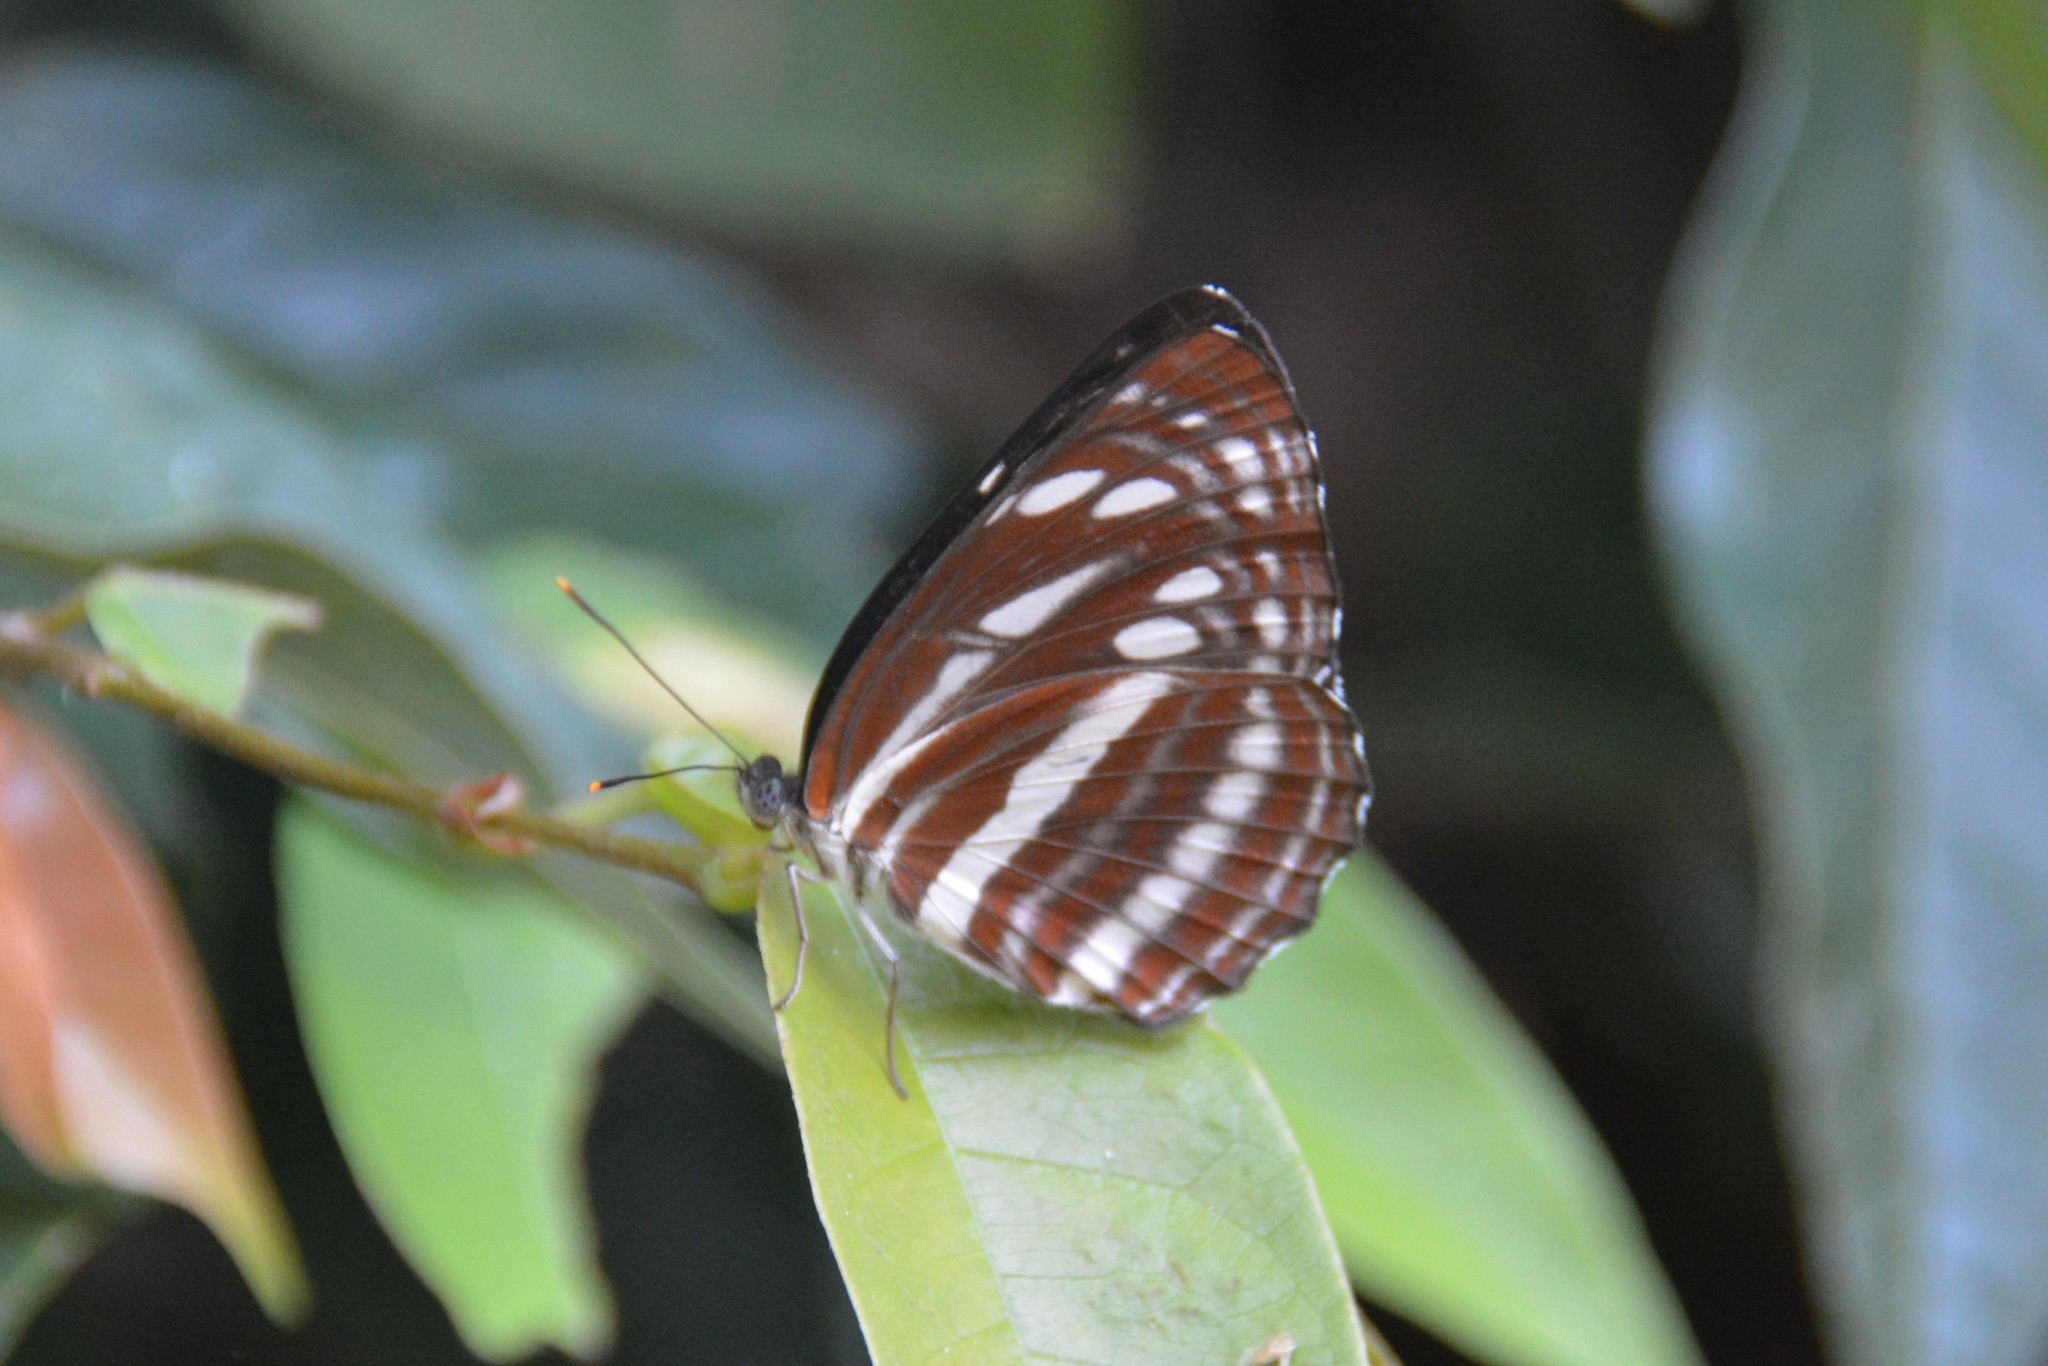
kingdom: Animalia
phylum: Arthropoda
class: Insecta
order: Lepidoptera
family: Nymphalidae
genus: Neptis
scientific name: Neptis nata
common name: Sullied brown sailer
